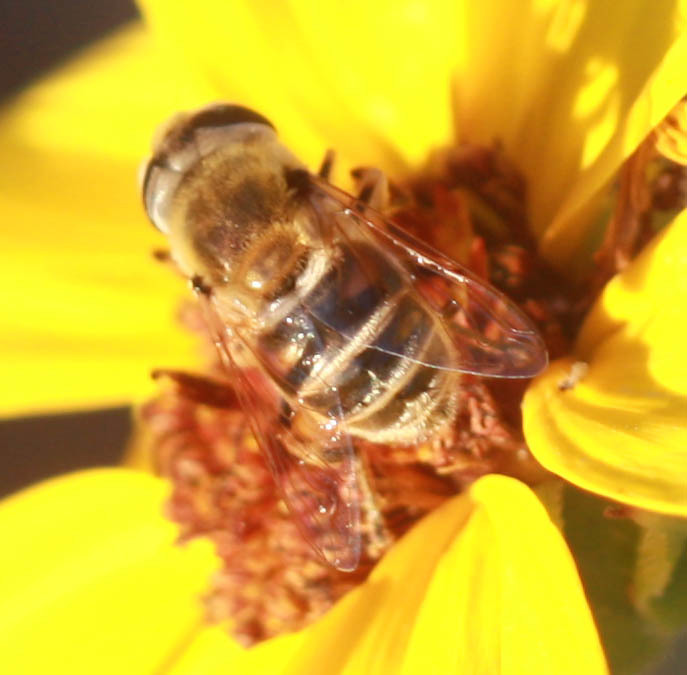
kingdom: Animalia
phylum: Arthropoda
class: Insecta
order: Diptera
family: Syrphidae
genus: Eristalis
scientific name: Eristalis stipator
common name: Yellow-shouldered drone fly
